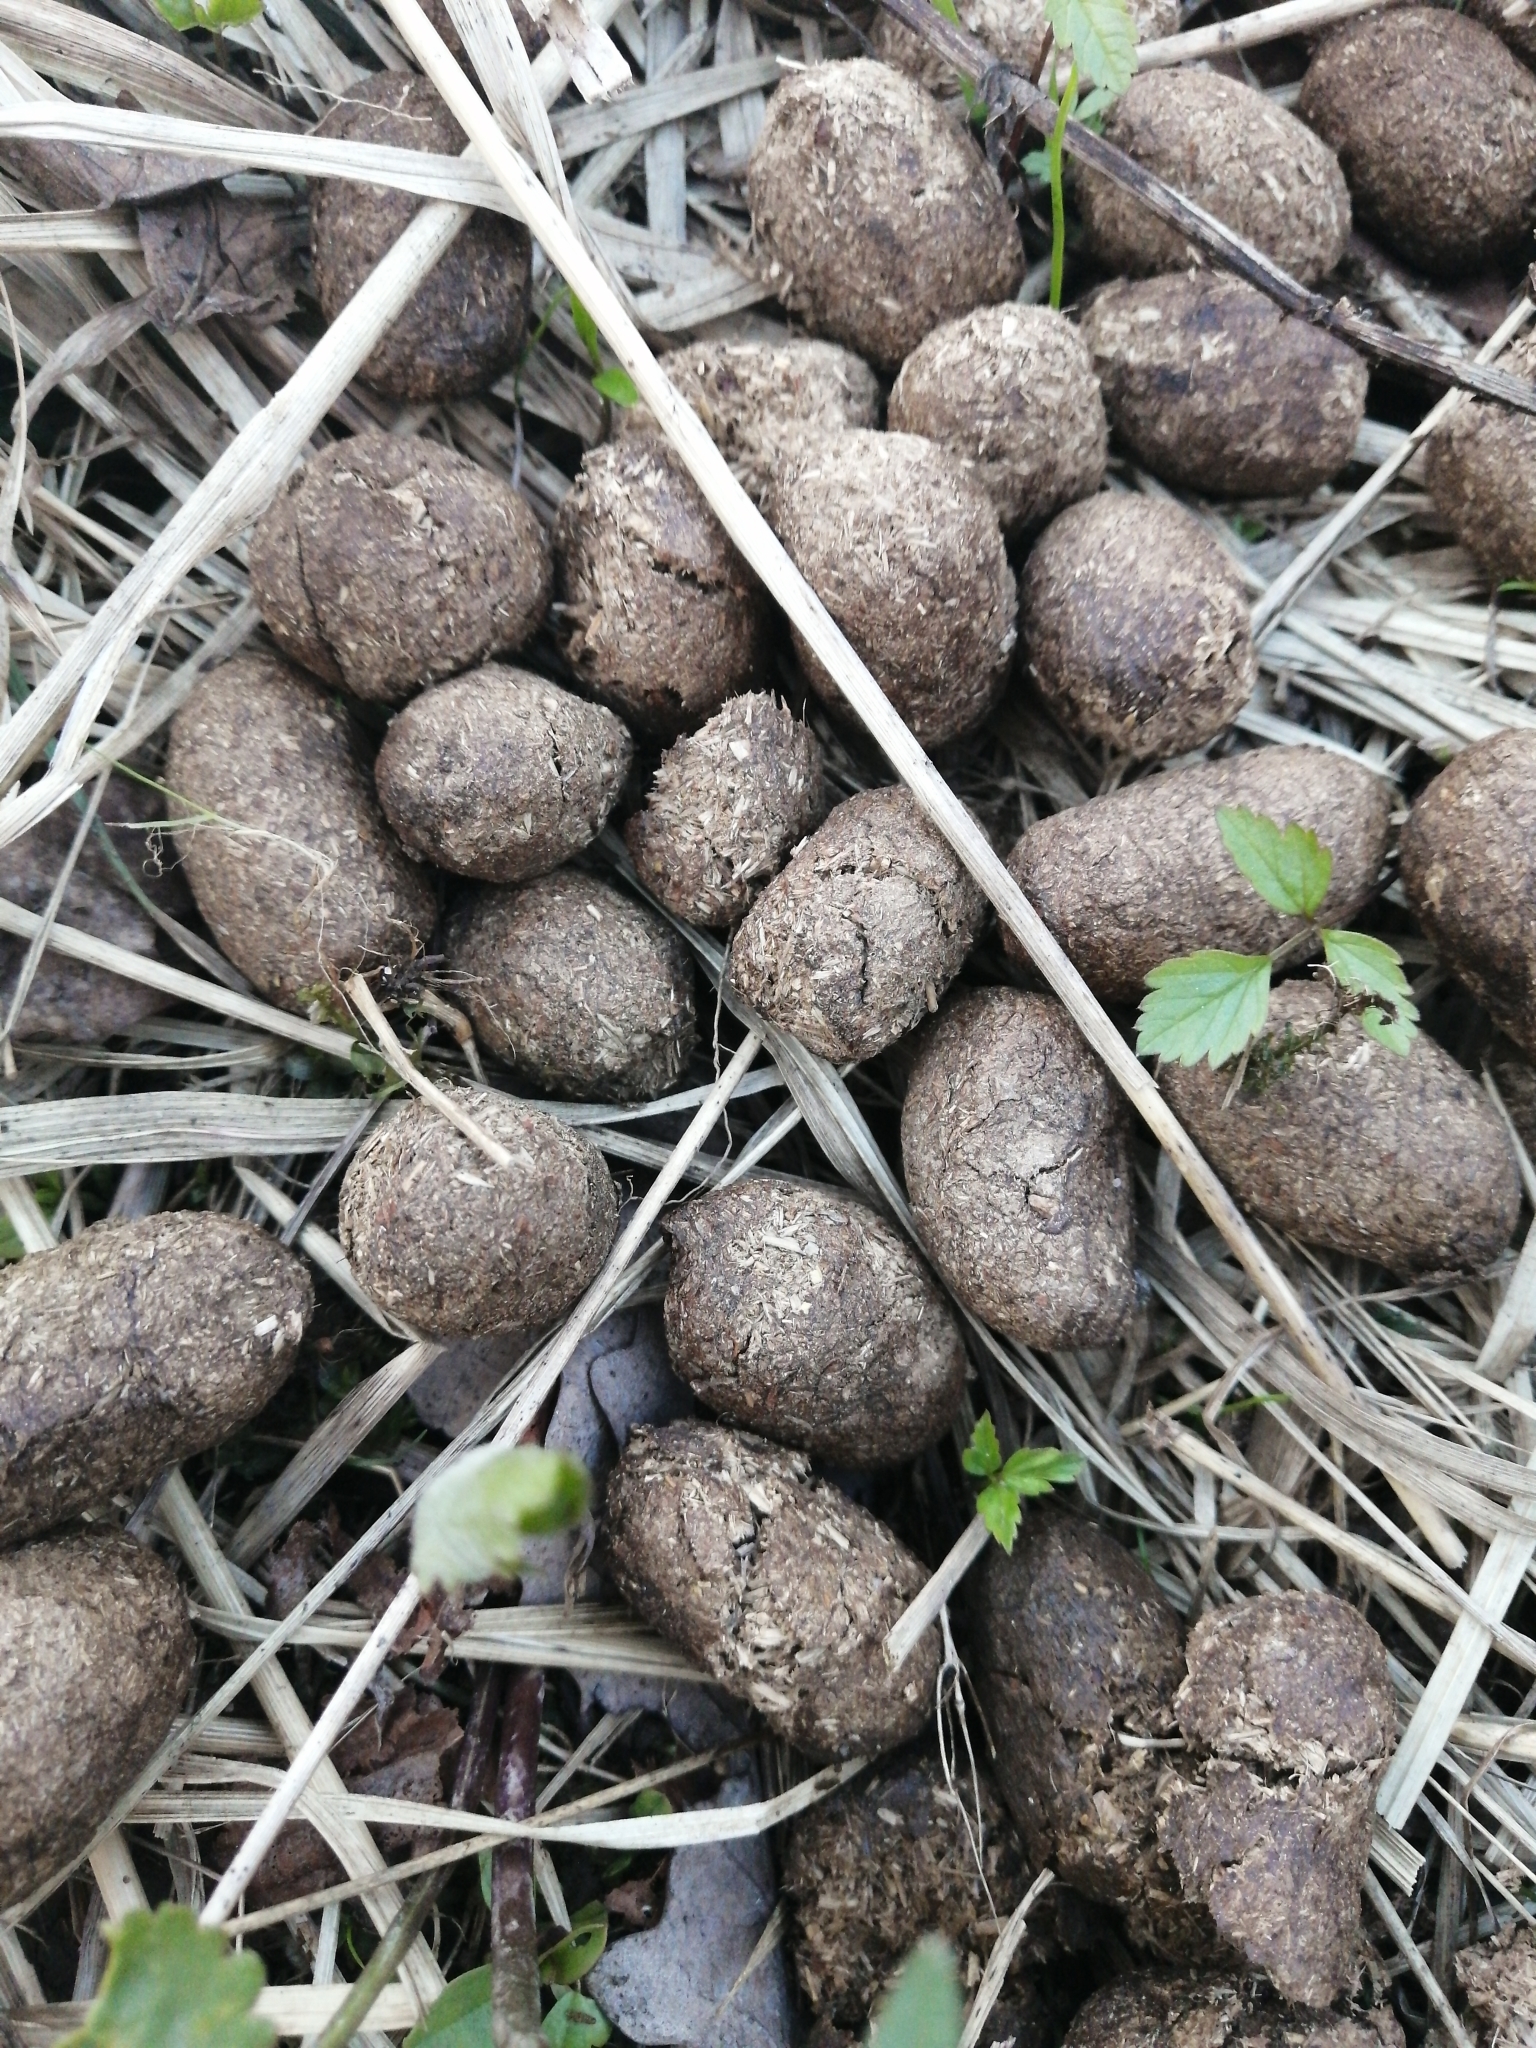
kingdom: Animalia
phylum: Chordata
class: Mammalia
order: Artiodactyla
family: Cervidae
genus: Alces
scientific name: Alces alces
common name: Moose
